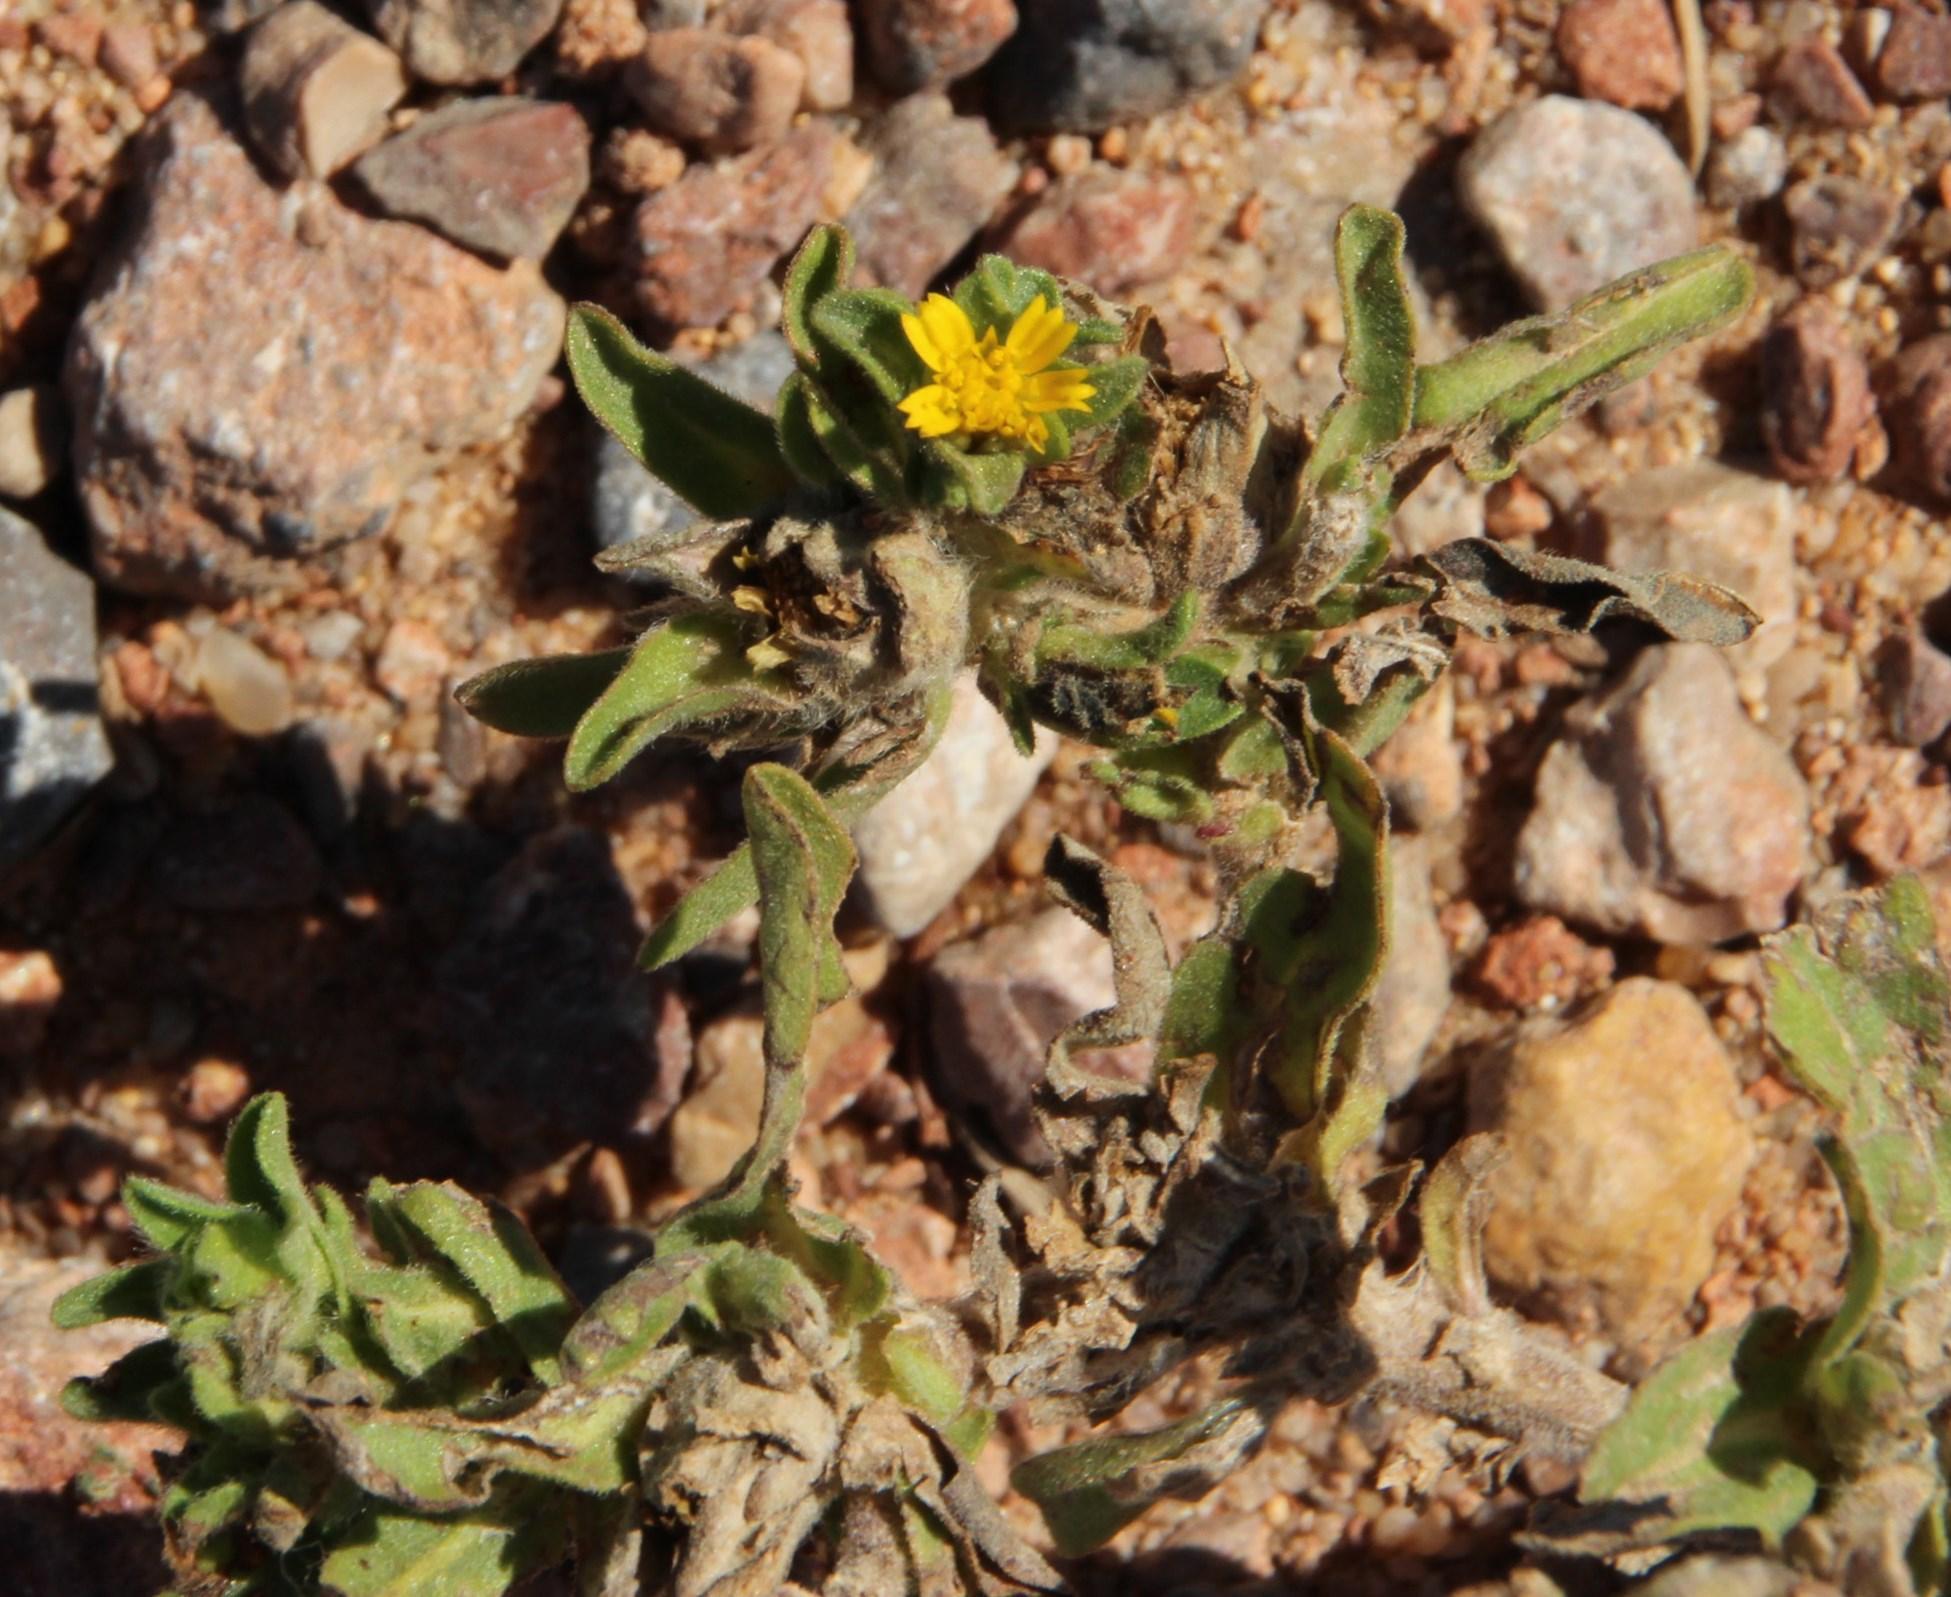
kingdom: Plantae
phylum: Tracheophyta
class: Magnoliopsida
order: Asterales
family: Asteraceae
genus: Asteriscus
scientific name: Asteriscus aquaticus
